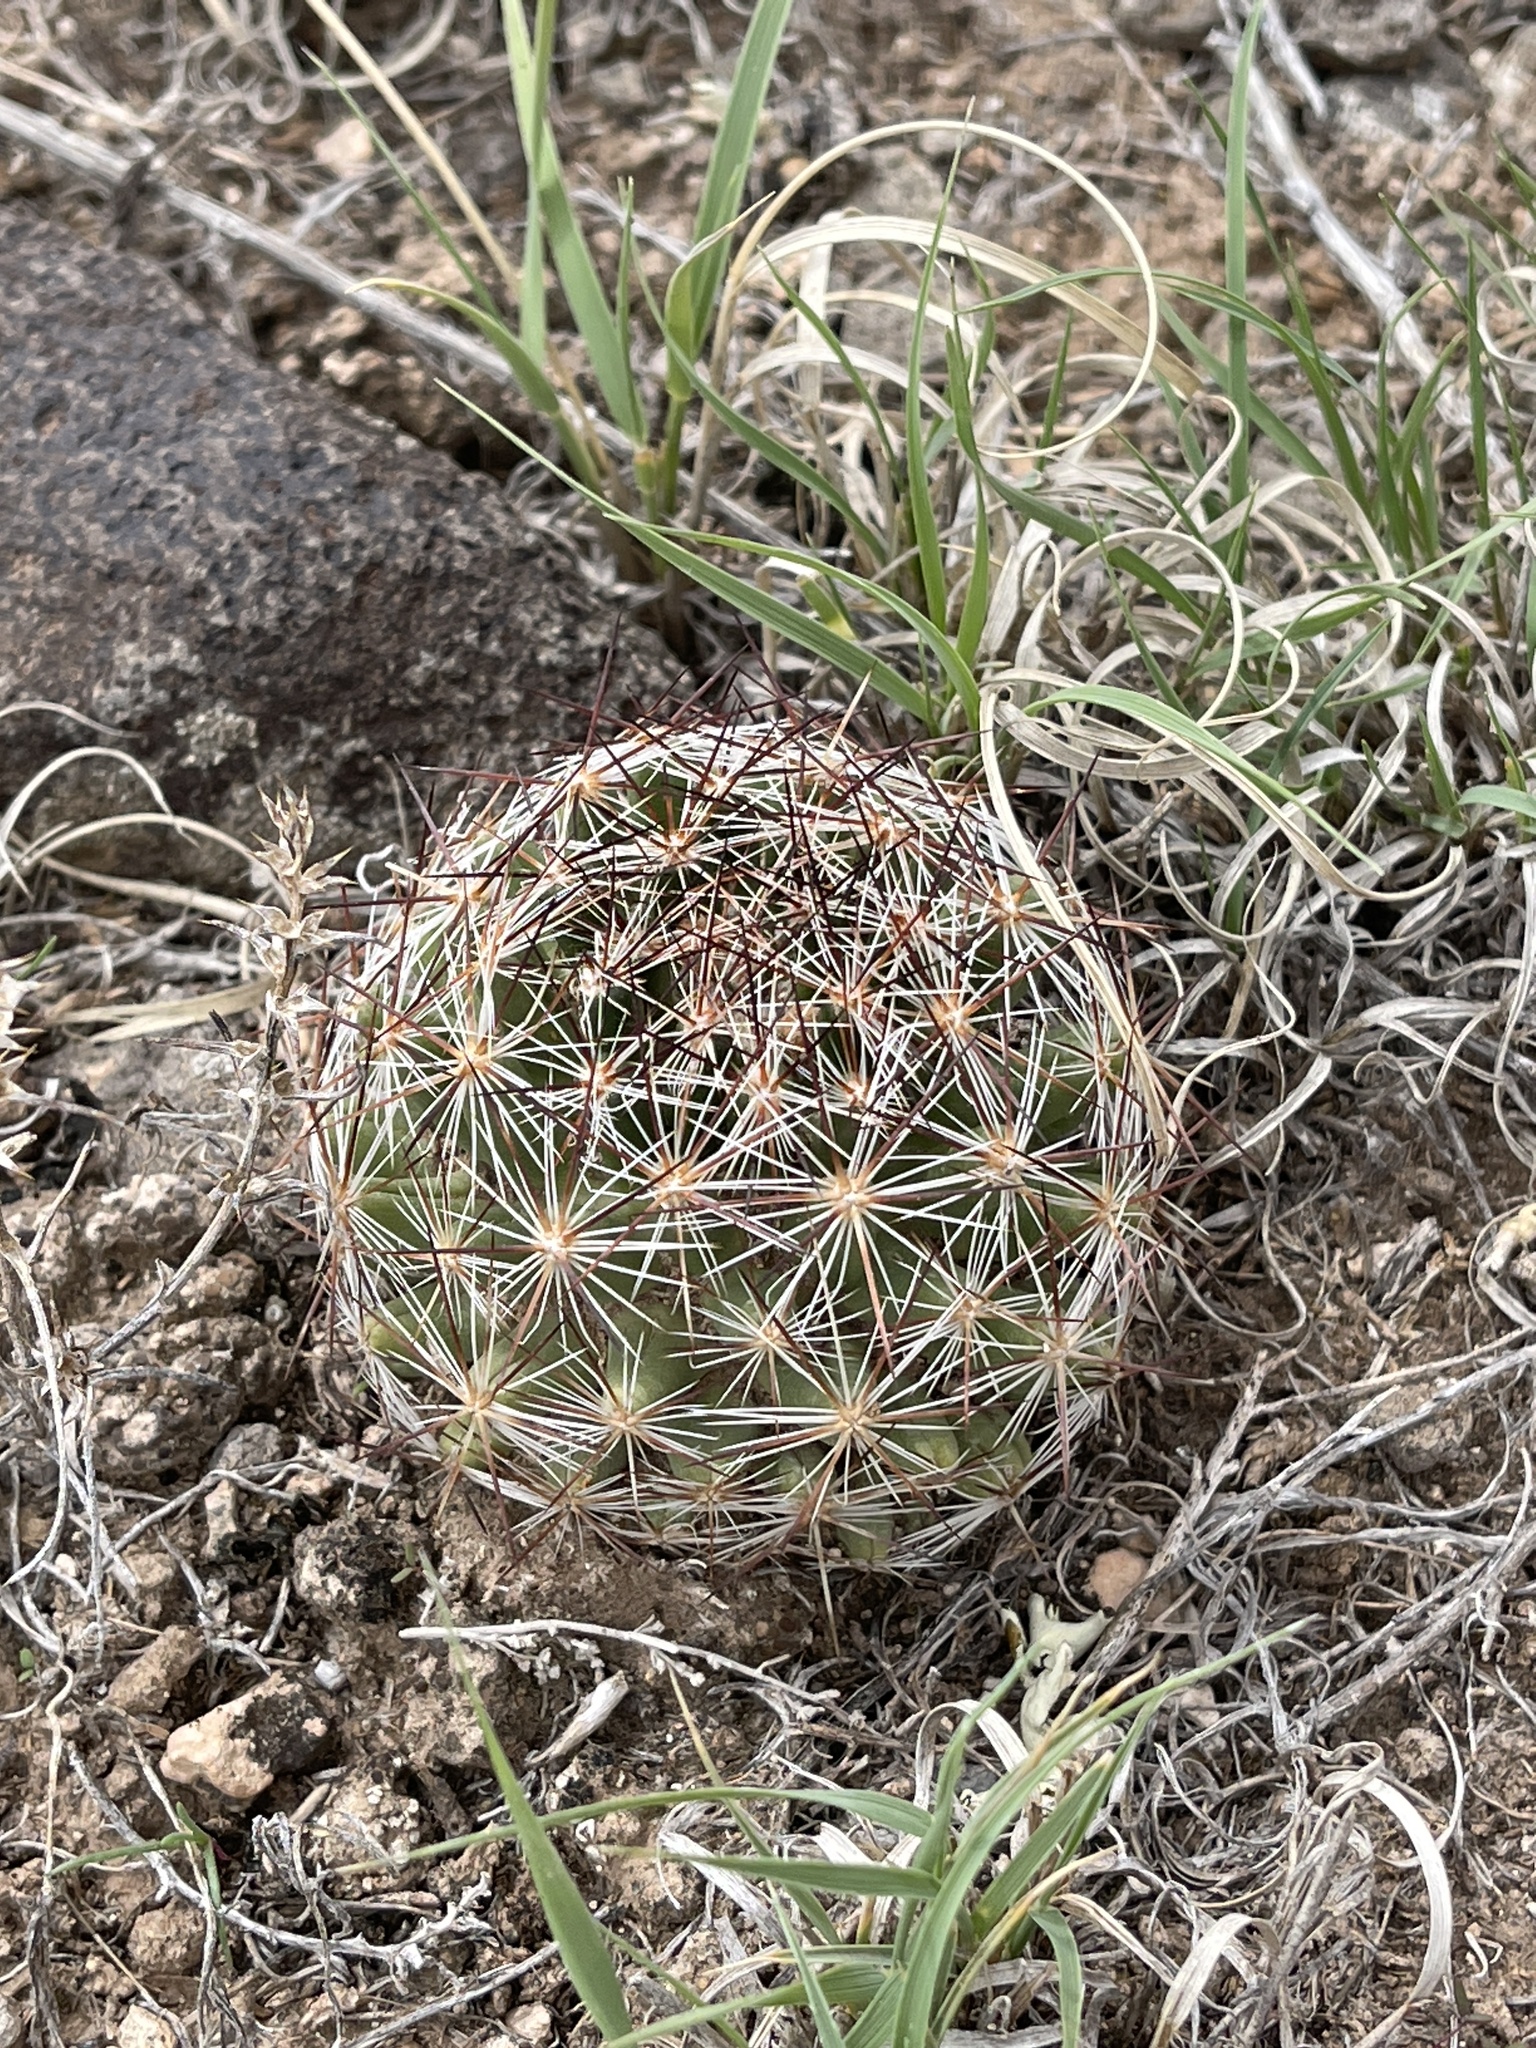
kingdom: Plantae
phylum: Tracheophyta
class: Magnoliopsida
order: Caryophyllales
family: Cactaceae
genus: Pelecyphora
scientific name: Pelecyphora vivipara
